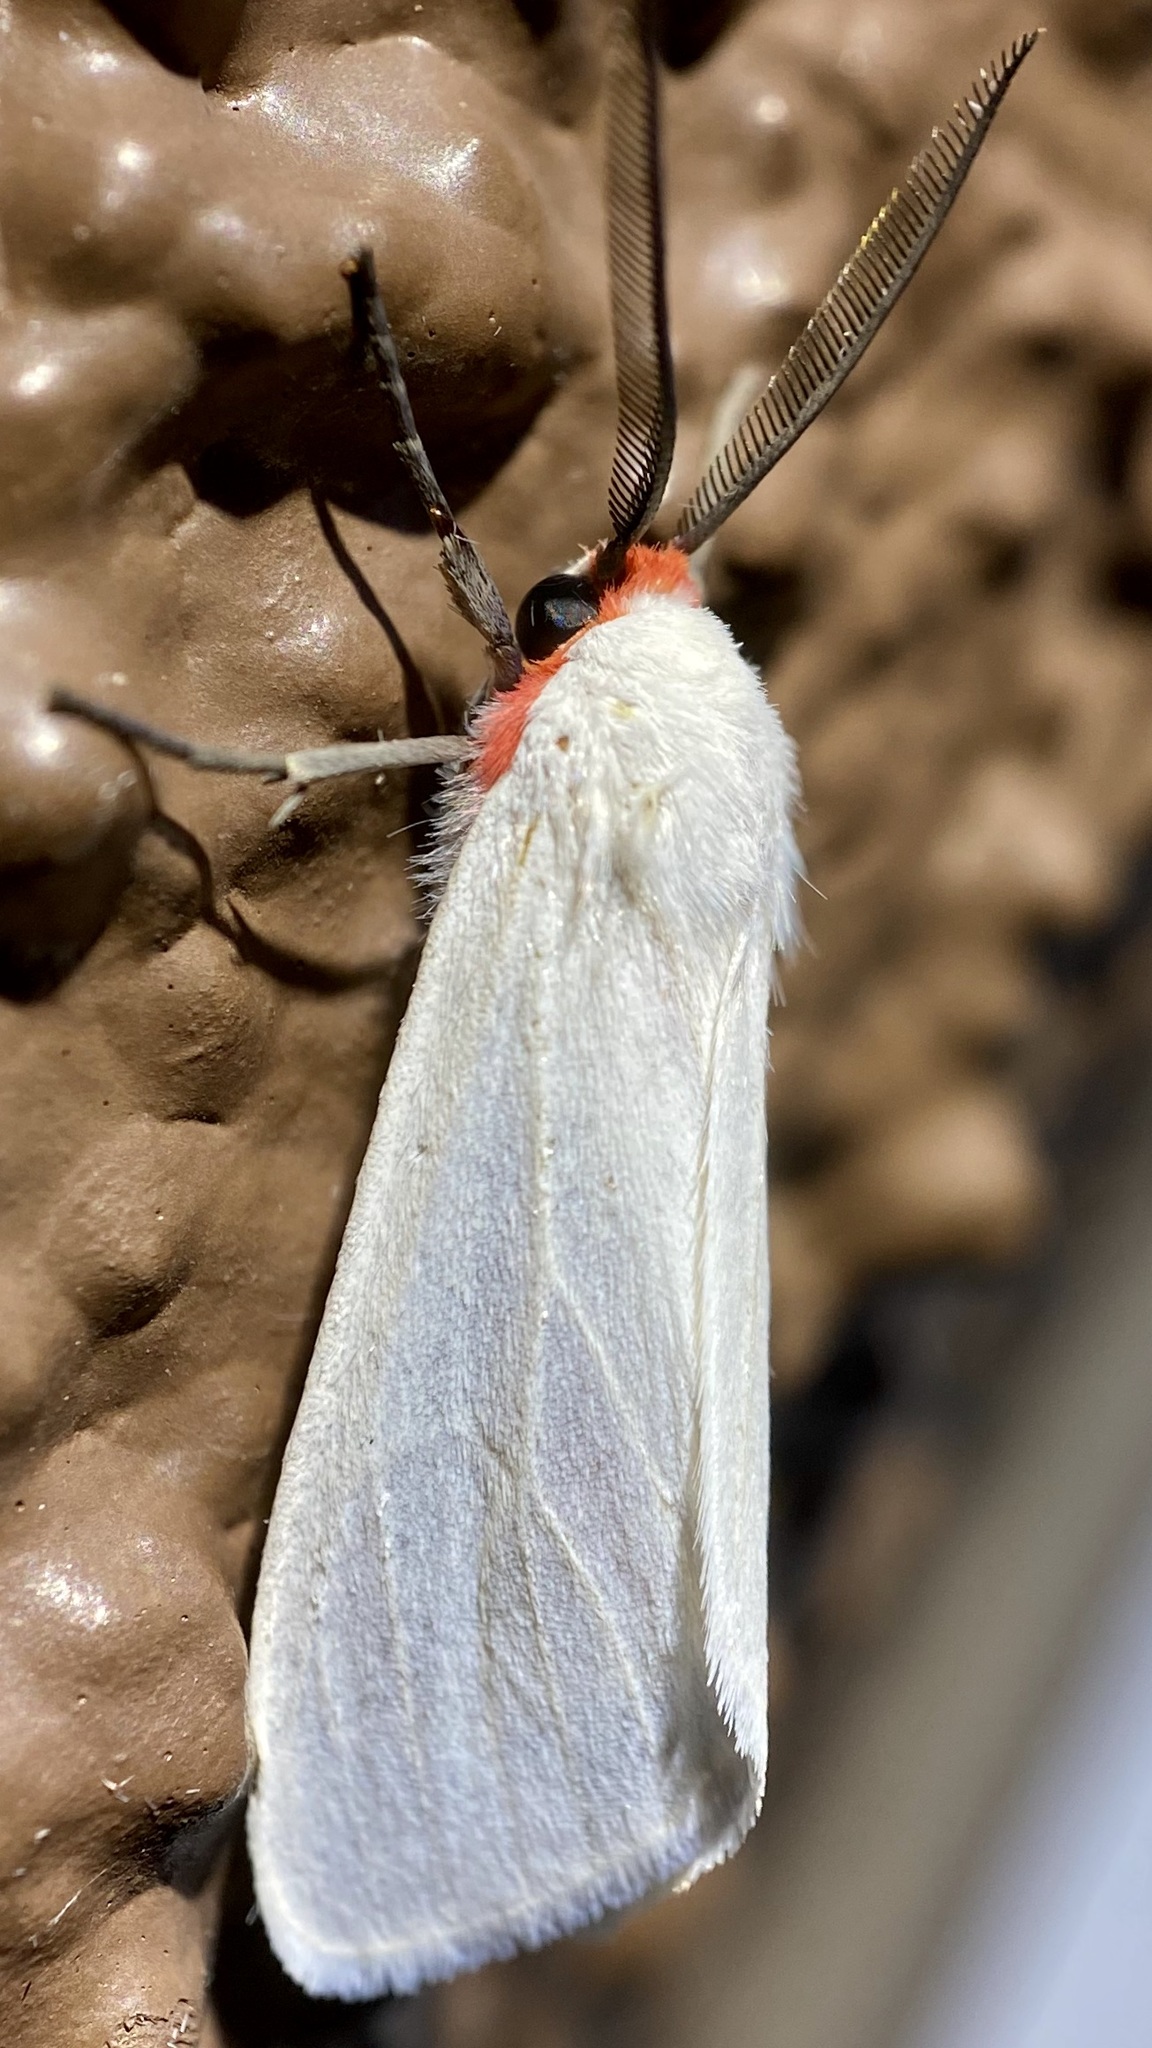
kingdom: Animalia
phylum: Arthropoda
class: Insecta
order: Lepidoptera
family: Erebidae
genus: Pygarctia
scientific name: Pygarctia roseicapitis
